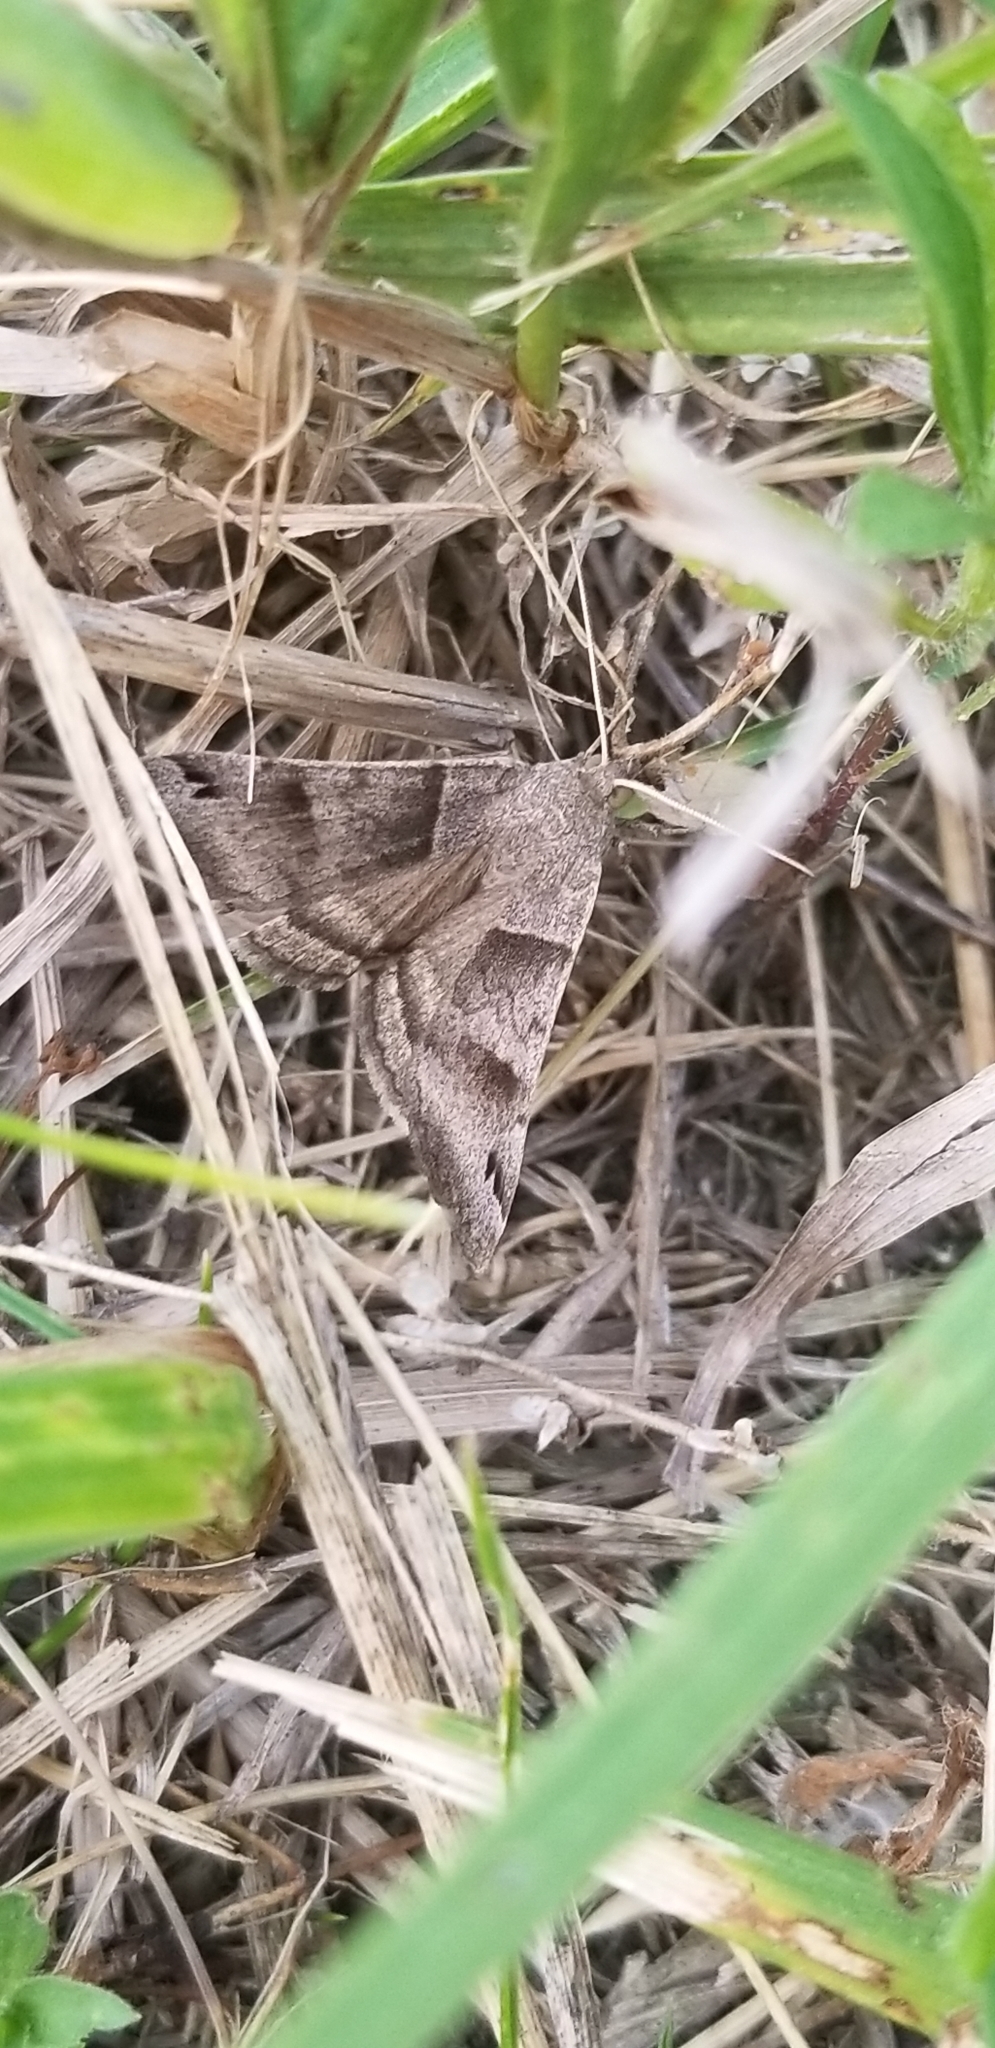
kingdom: Animalia
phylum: Arthropoda
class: Insecta
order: Lepidoptera
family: Erebidae
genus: Caenurgina
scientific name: Caenurgina erechtea
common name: Forage looper moth
